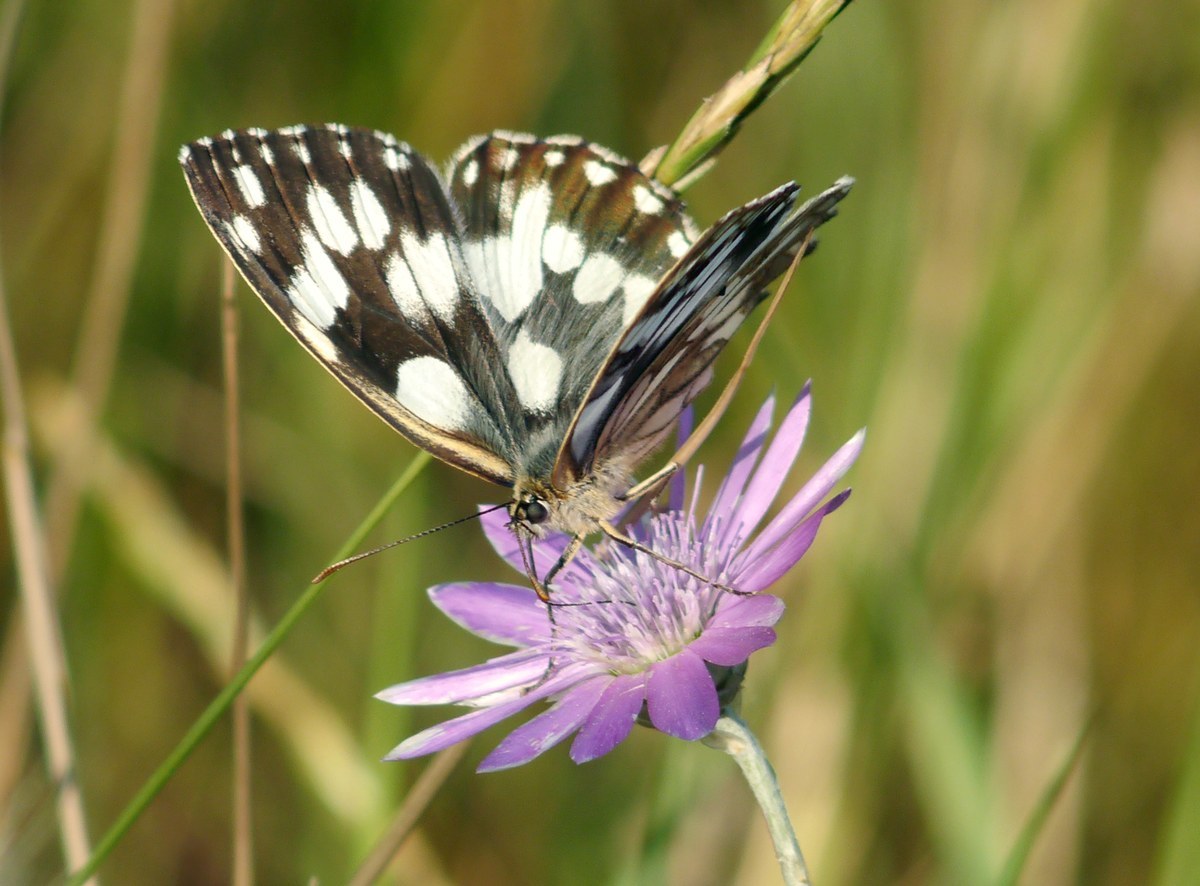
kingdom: Animalia
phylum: Arthropoda
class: Insecta
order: Lepidoptera
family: Nymphalidae
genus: Melanargia
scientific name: Melanargia galathea
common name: Marbled white
